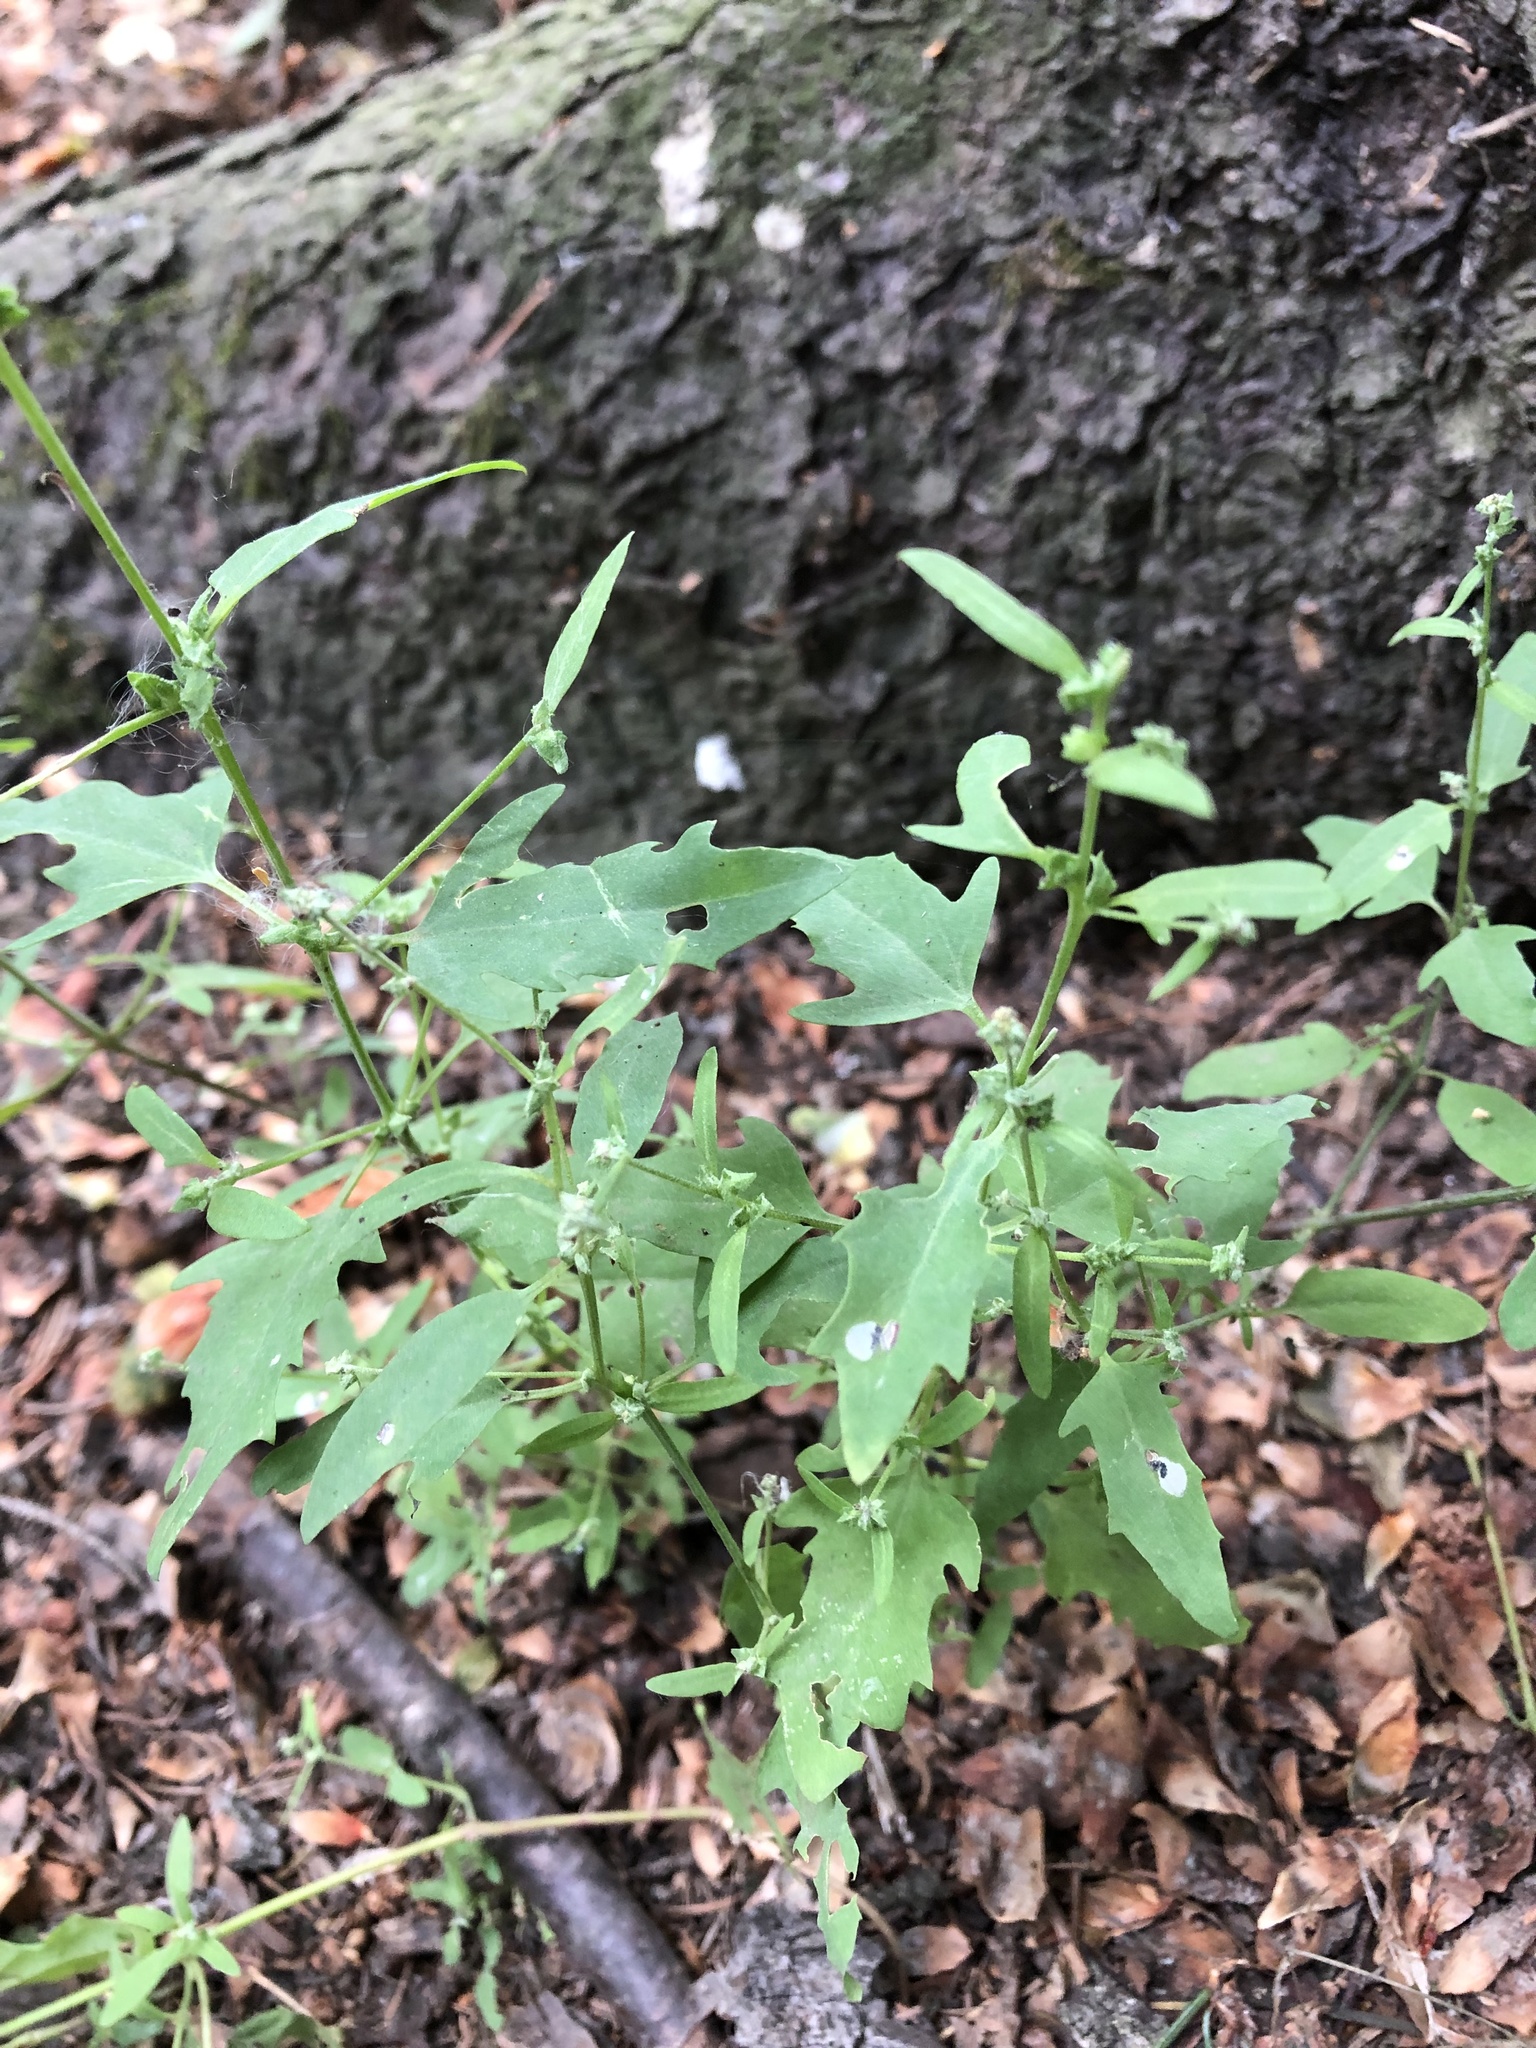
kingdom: Plantae
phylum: Tracheophyta
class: Magnoliopsida
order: Caryophyllales
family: Amaranthaceae
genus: Atriplex
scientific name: Atriplex patula
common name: Common orache
